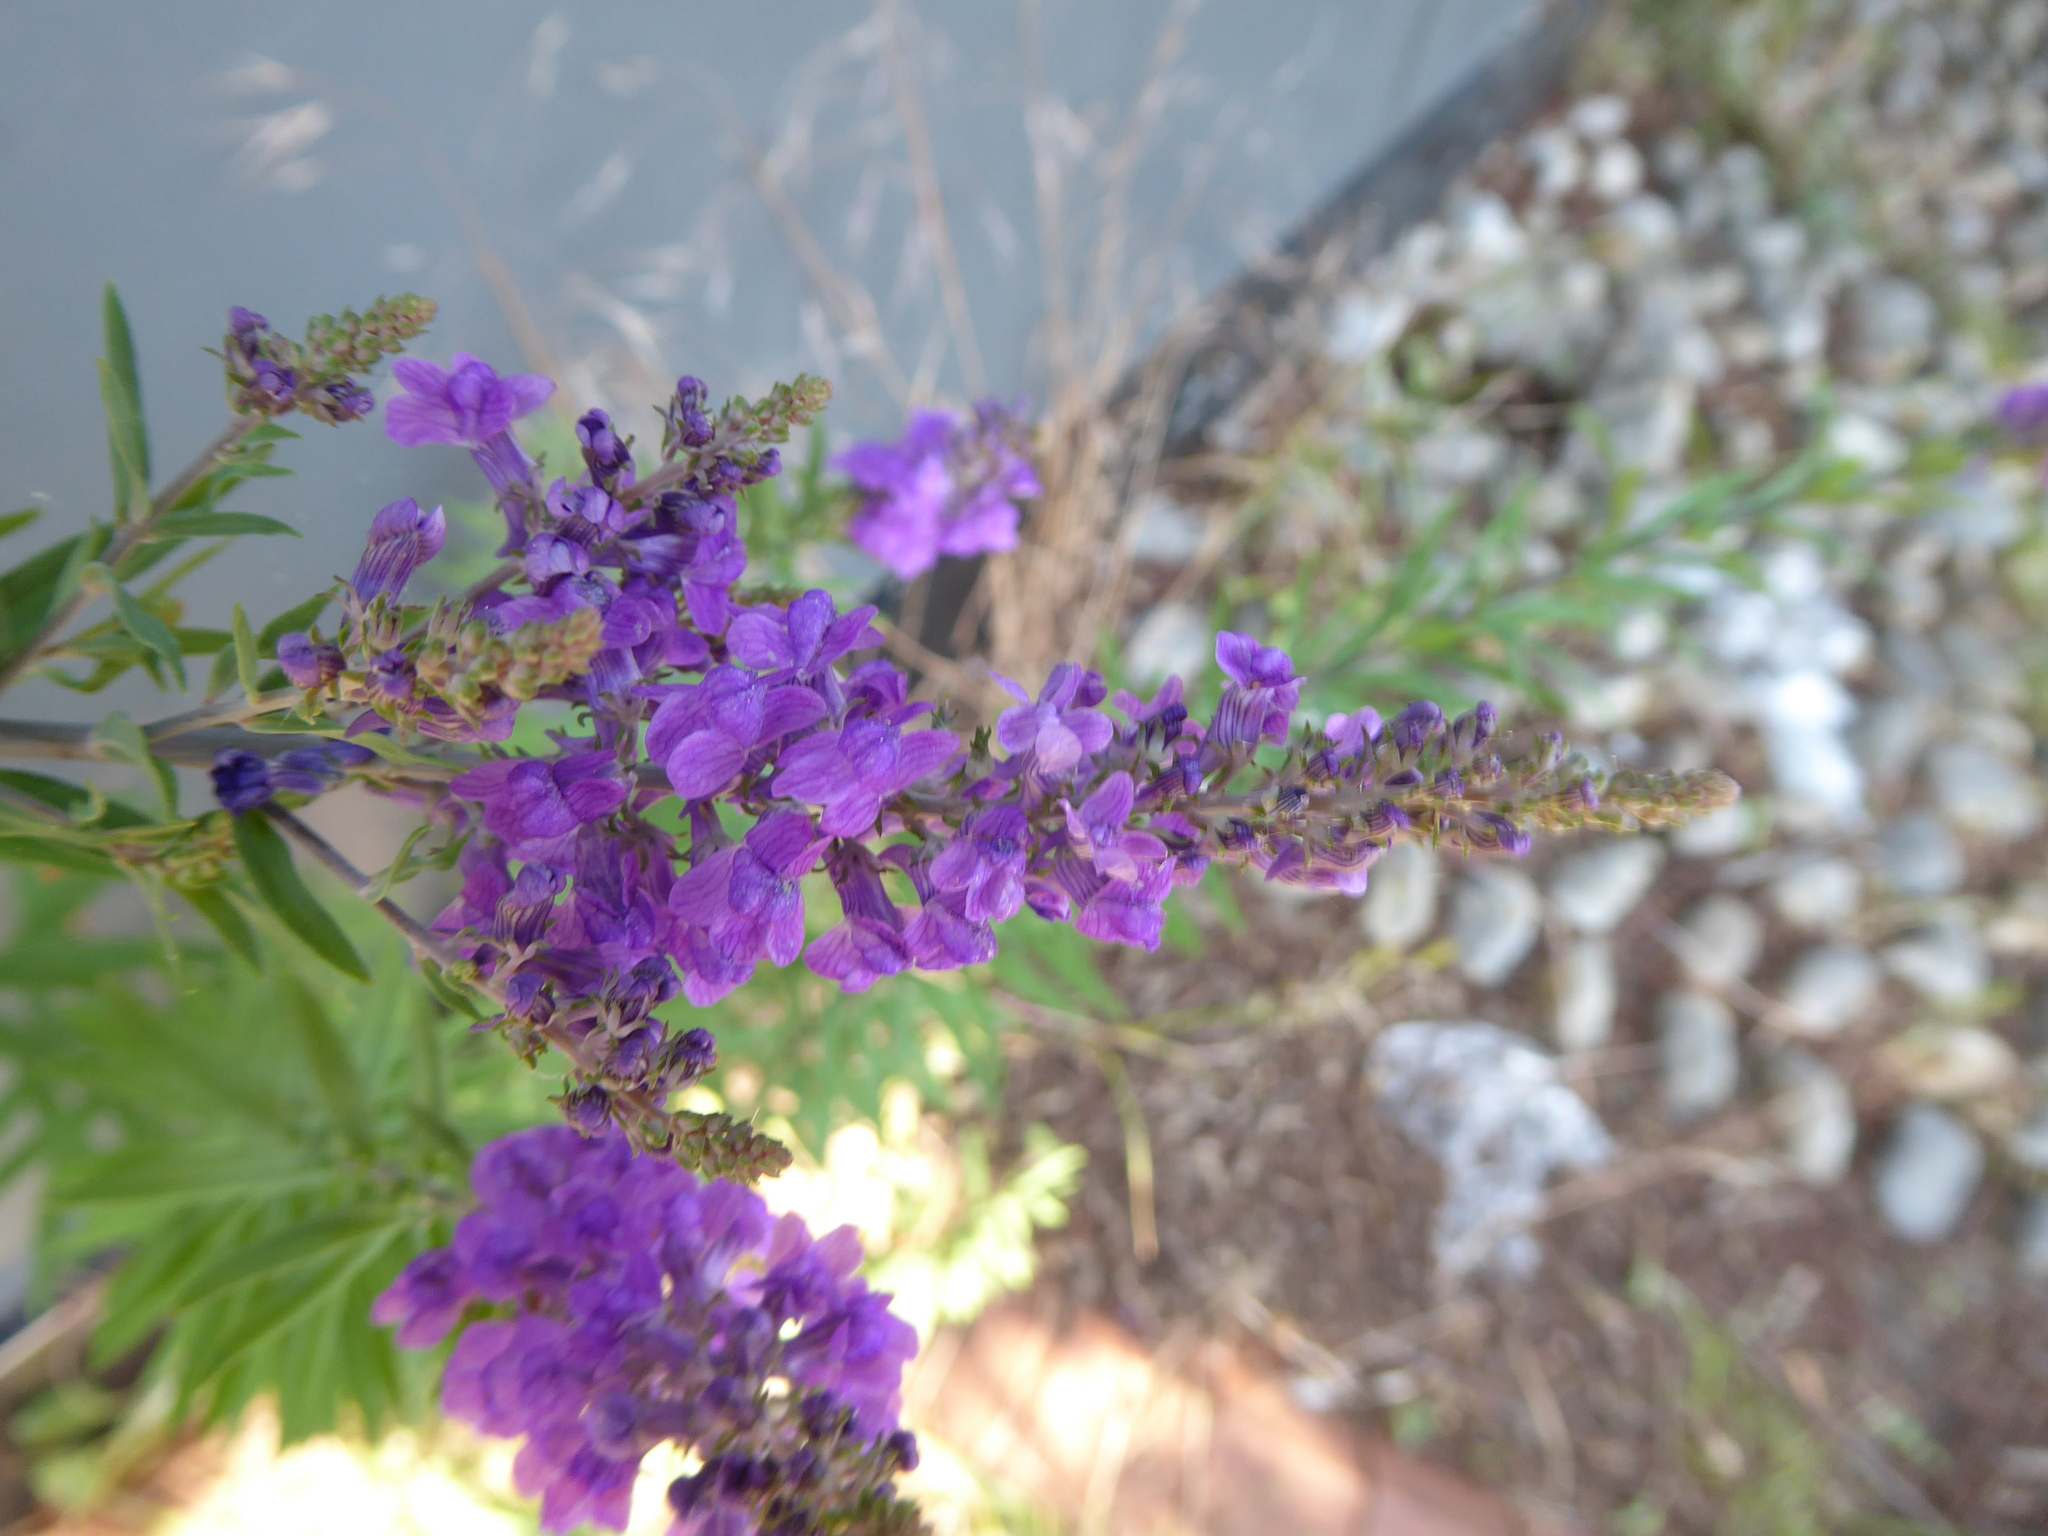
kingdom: Plantae
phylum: Tracheophyta
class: Magnoliopsida
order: Lamiales
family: Plantaginaceae
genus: Linaria
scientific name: Linaria purpurea
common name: Purple toadflax
